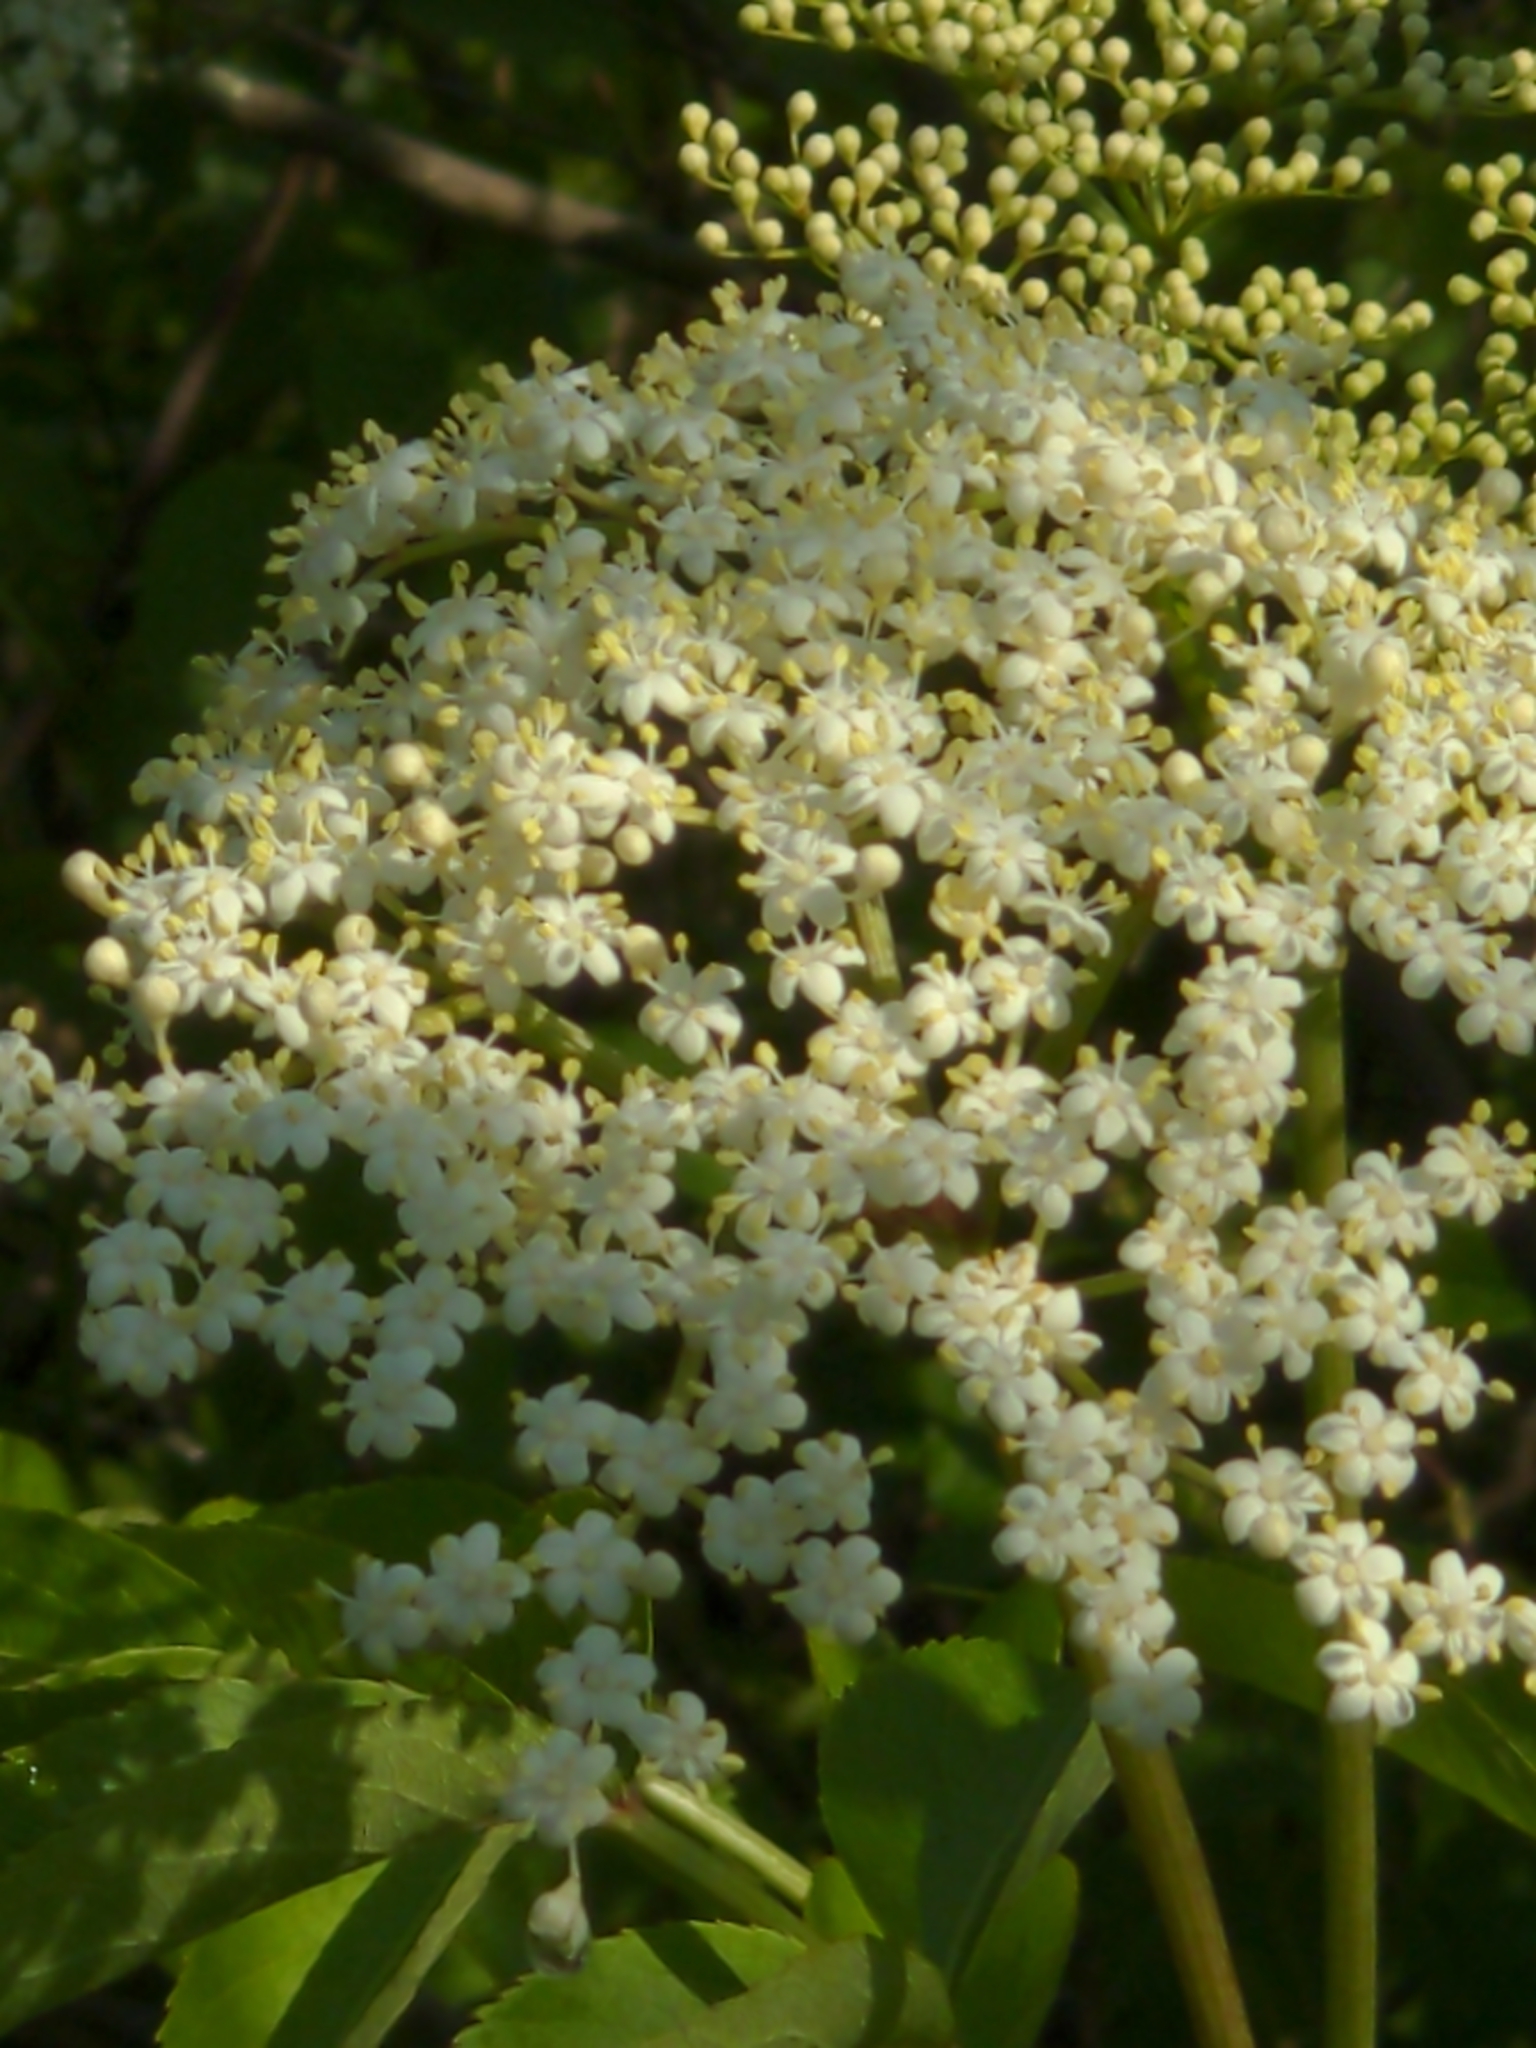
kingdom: Plantae
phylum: Tracheophyta
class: Magnoliopsida
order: Dipsacales
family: Viburnaceae
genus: Sambucus
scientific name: Sambucus canadensis
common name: American elder
